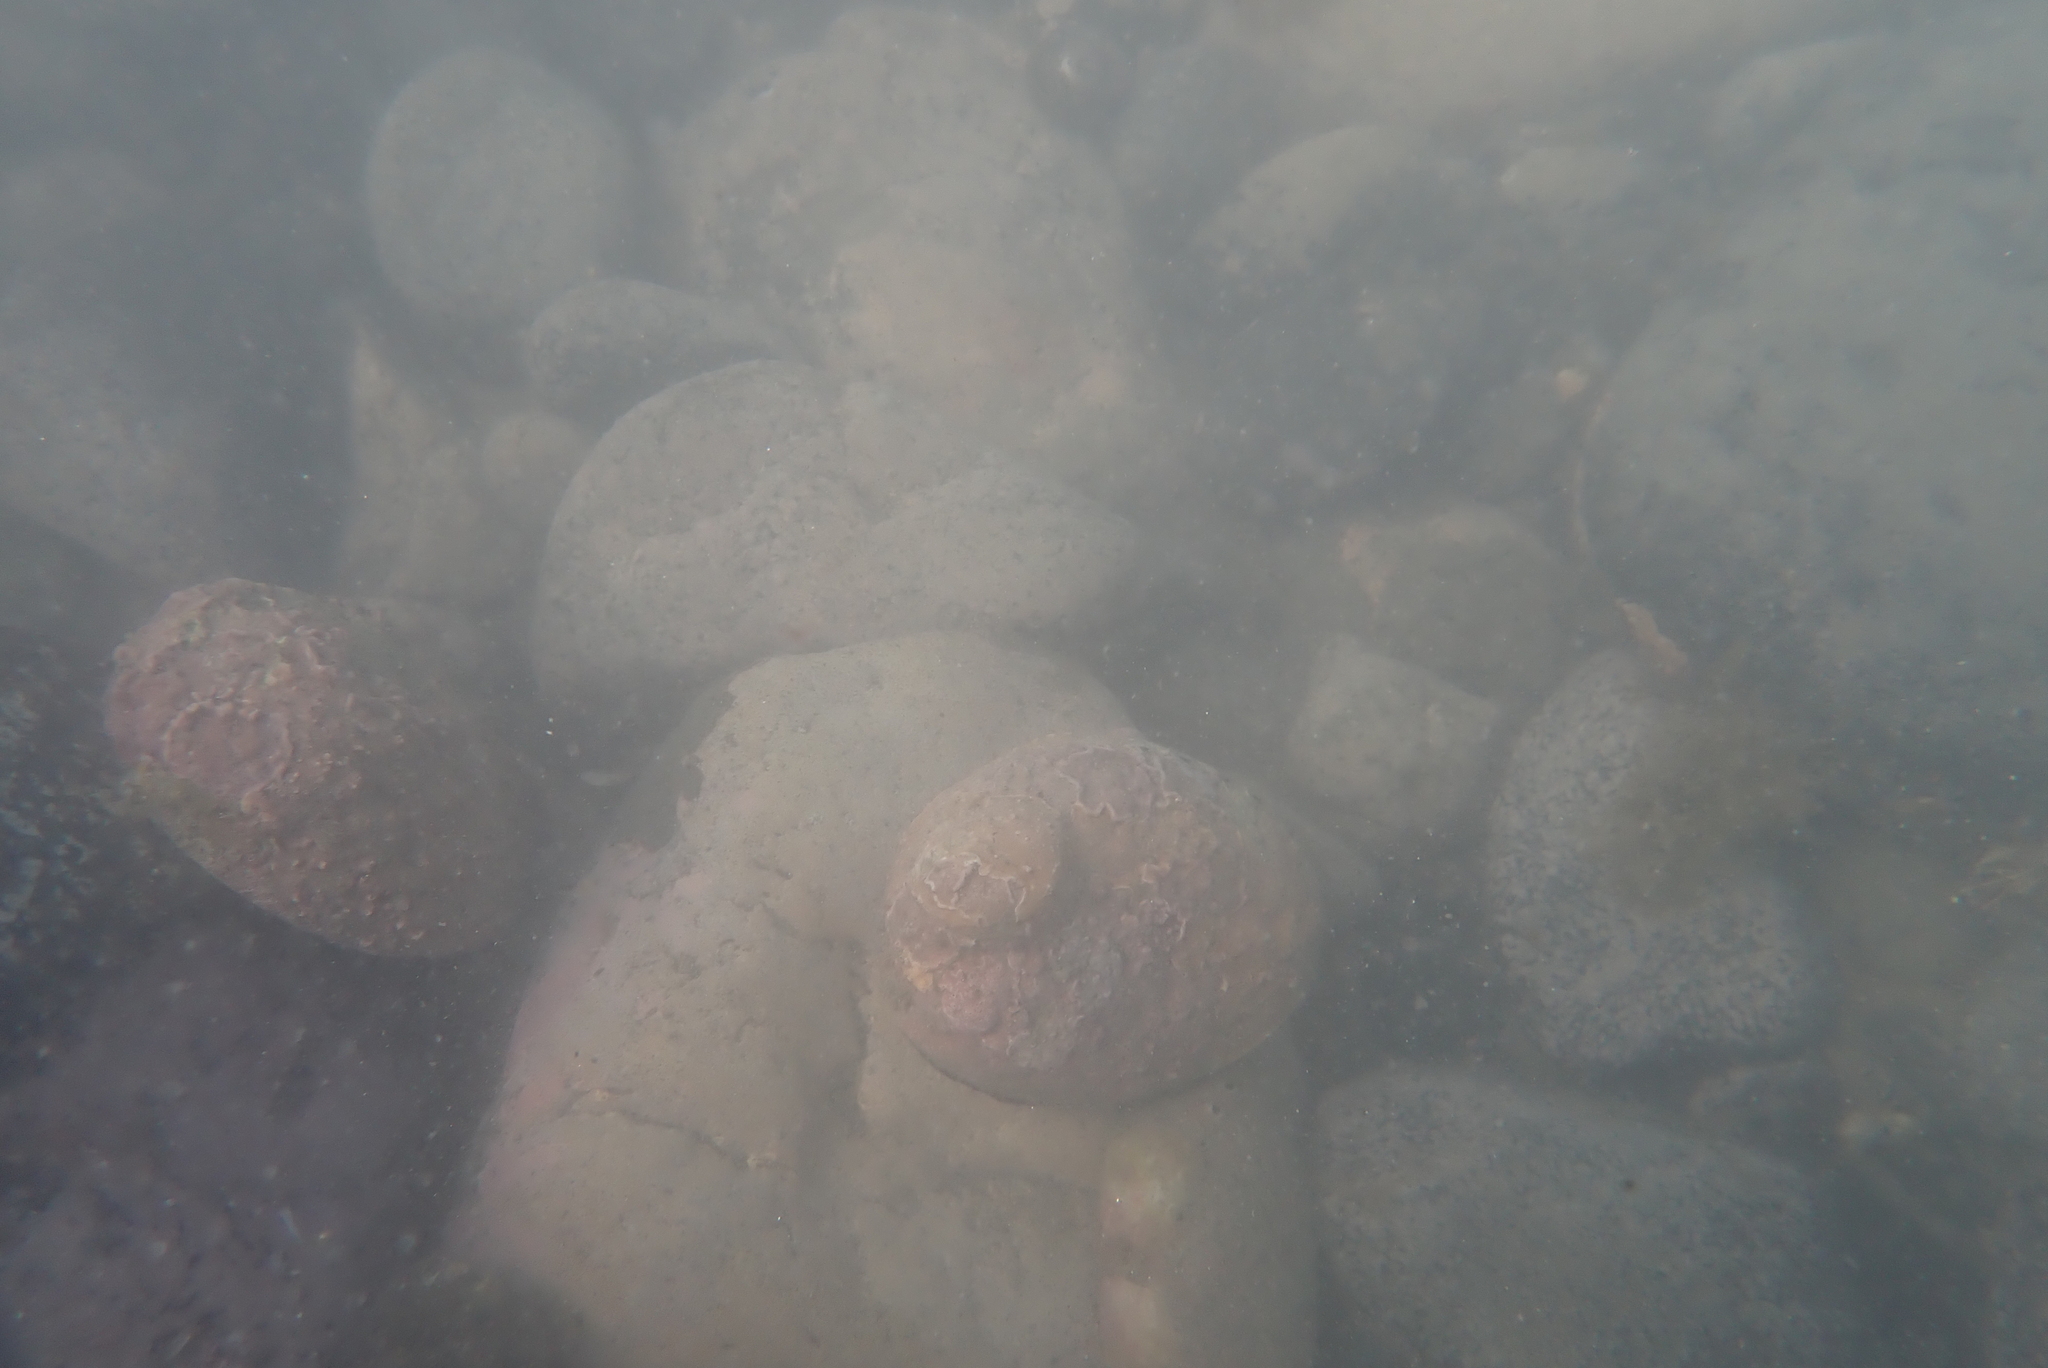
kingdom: Animalia
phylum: Mollusca
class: Gastropoda
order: Lepetellida
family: Haliotidae
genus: Haliotis
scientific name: Haliotis iris
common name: Abalone
